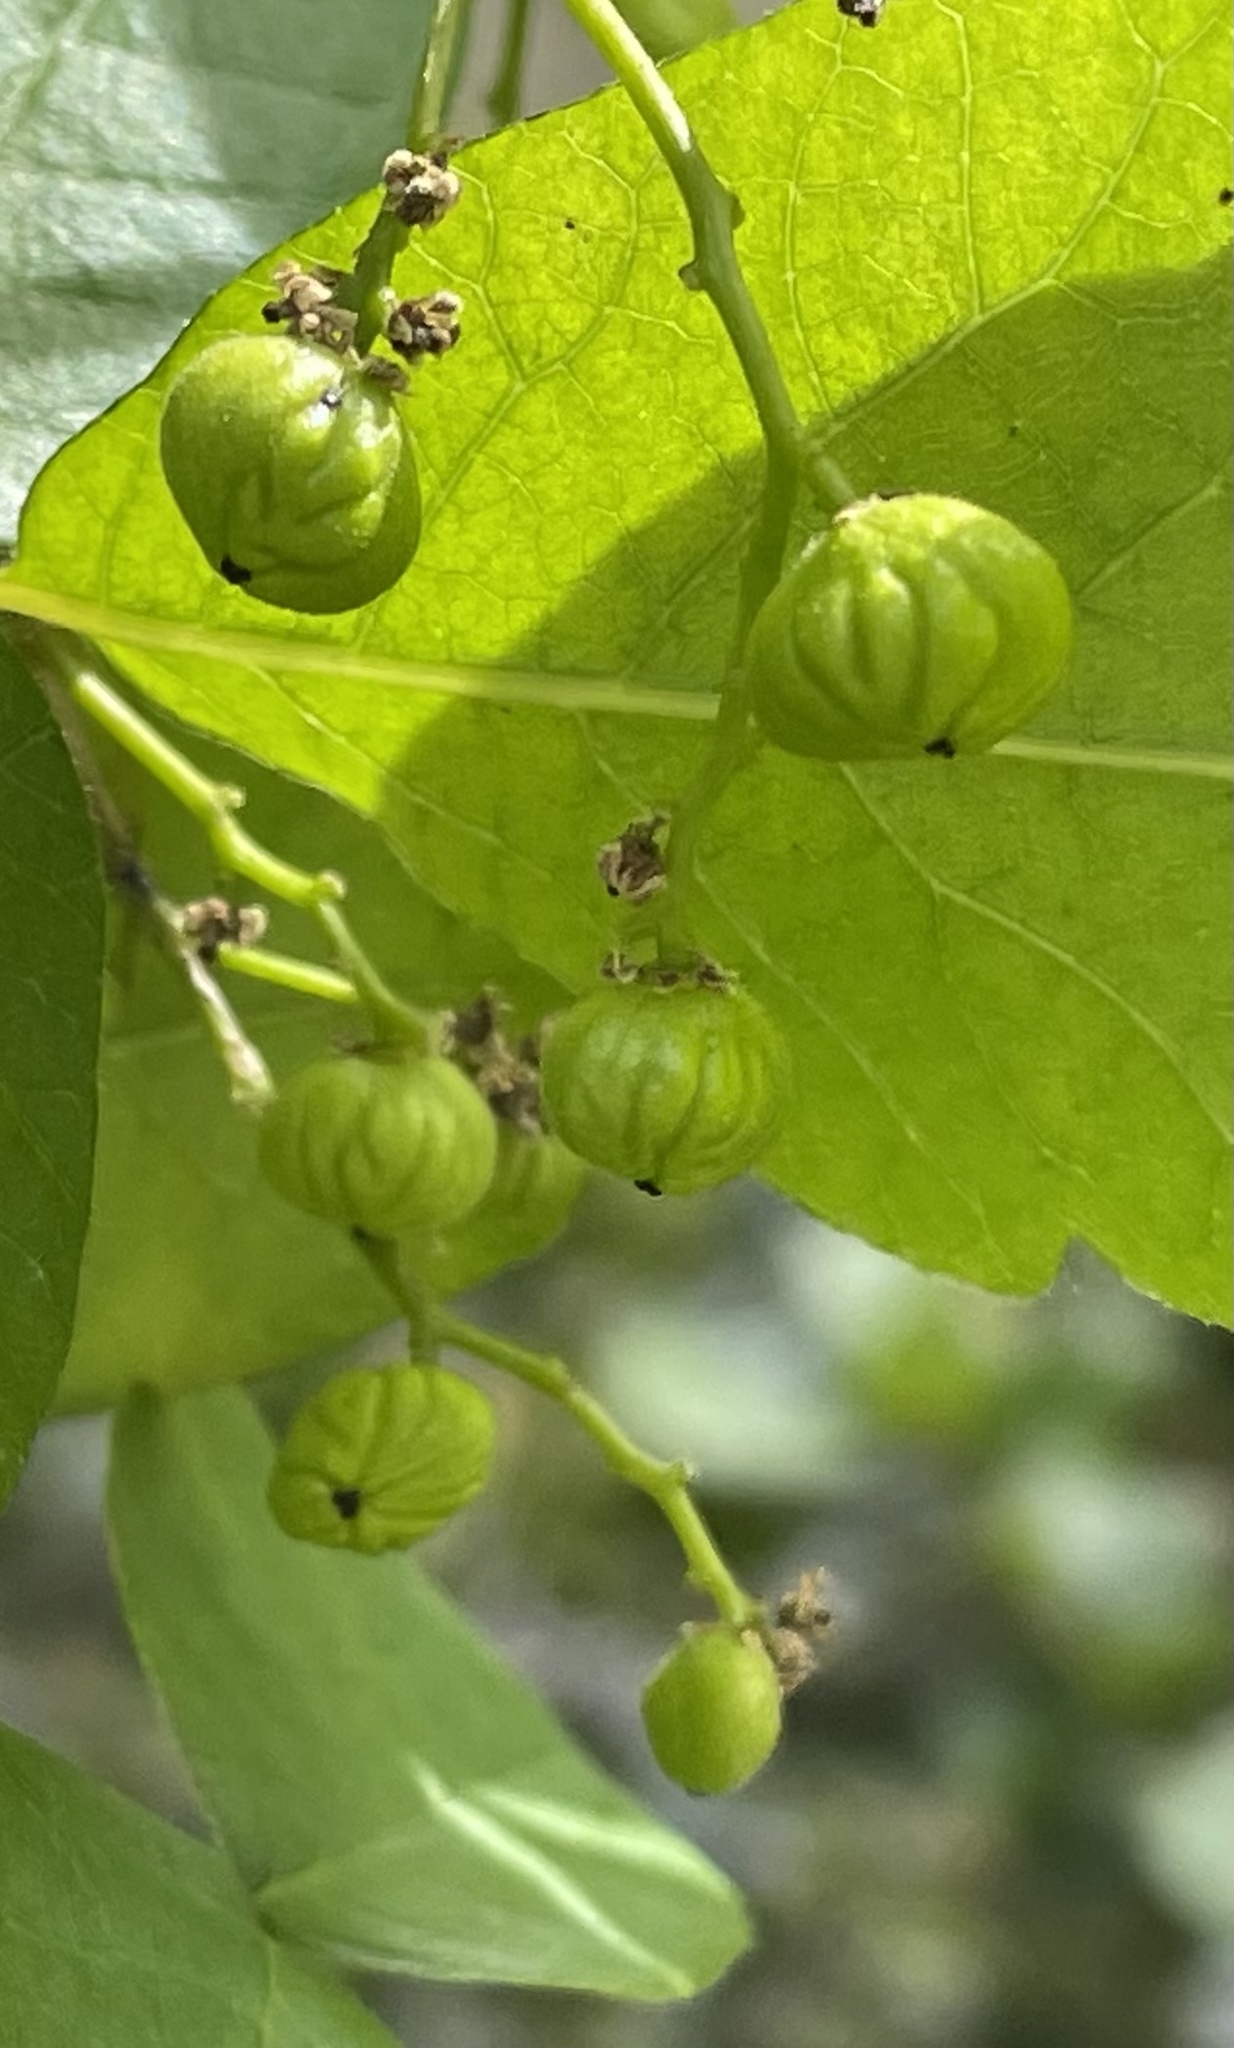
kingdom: Plantae
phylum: Tracheophyta
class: Magnoliopsida
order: Sapindales
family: Anacardiaceae
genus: Toxicodendron
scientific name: Toxicodendron diversilobum
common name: Pacific poison-oak
